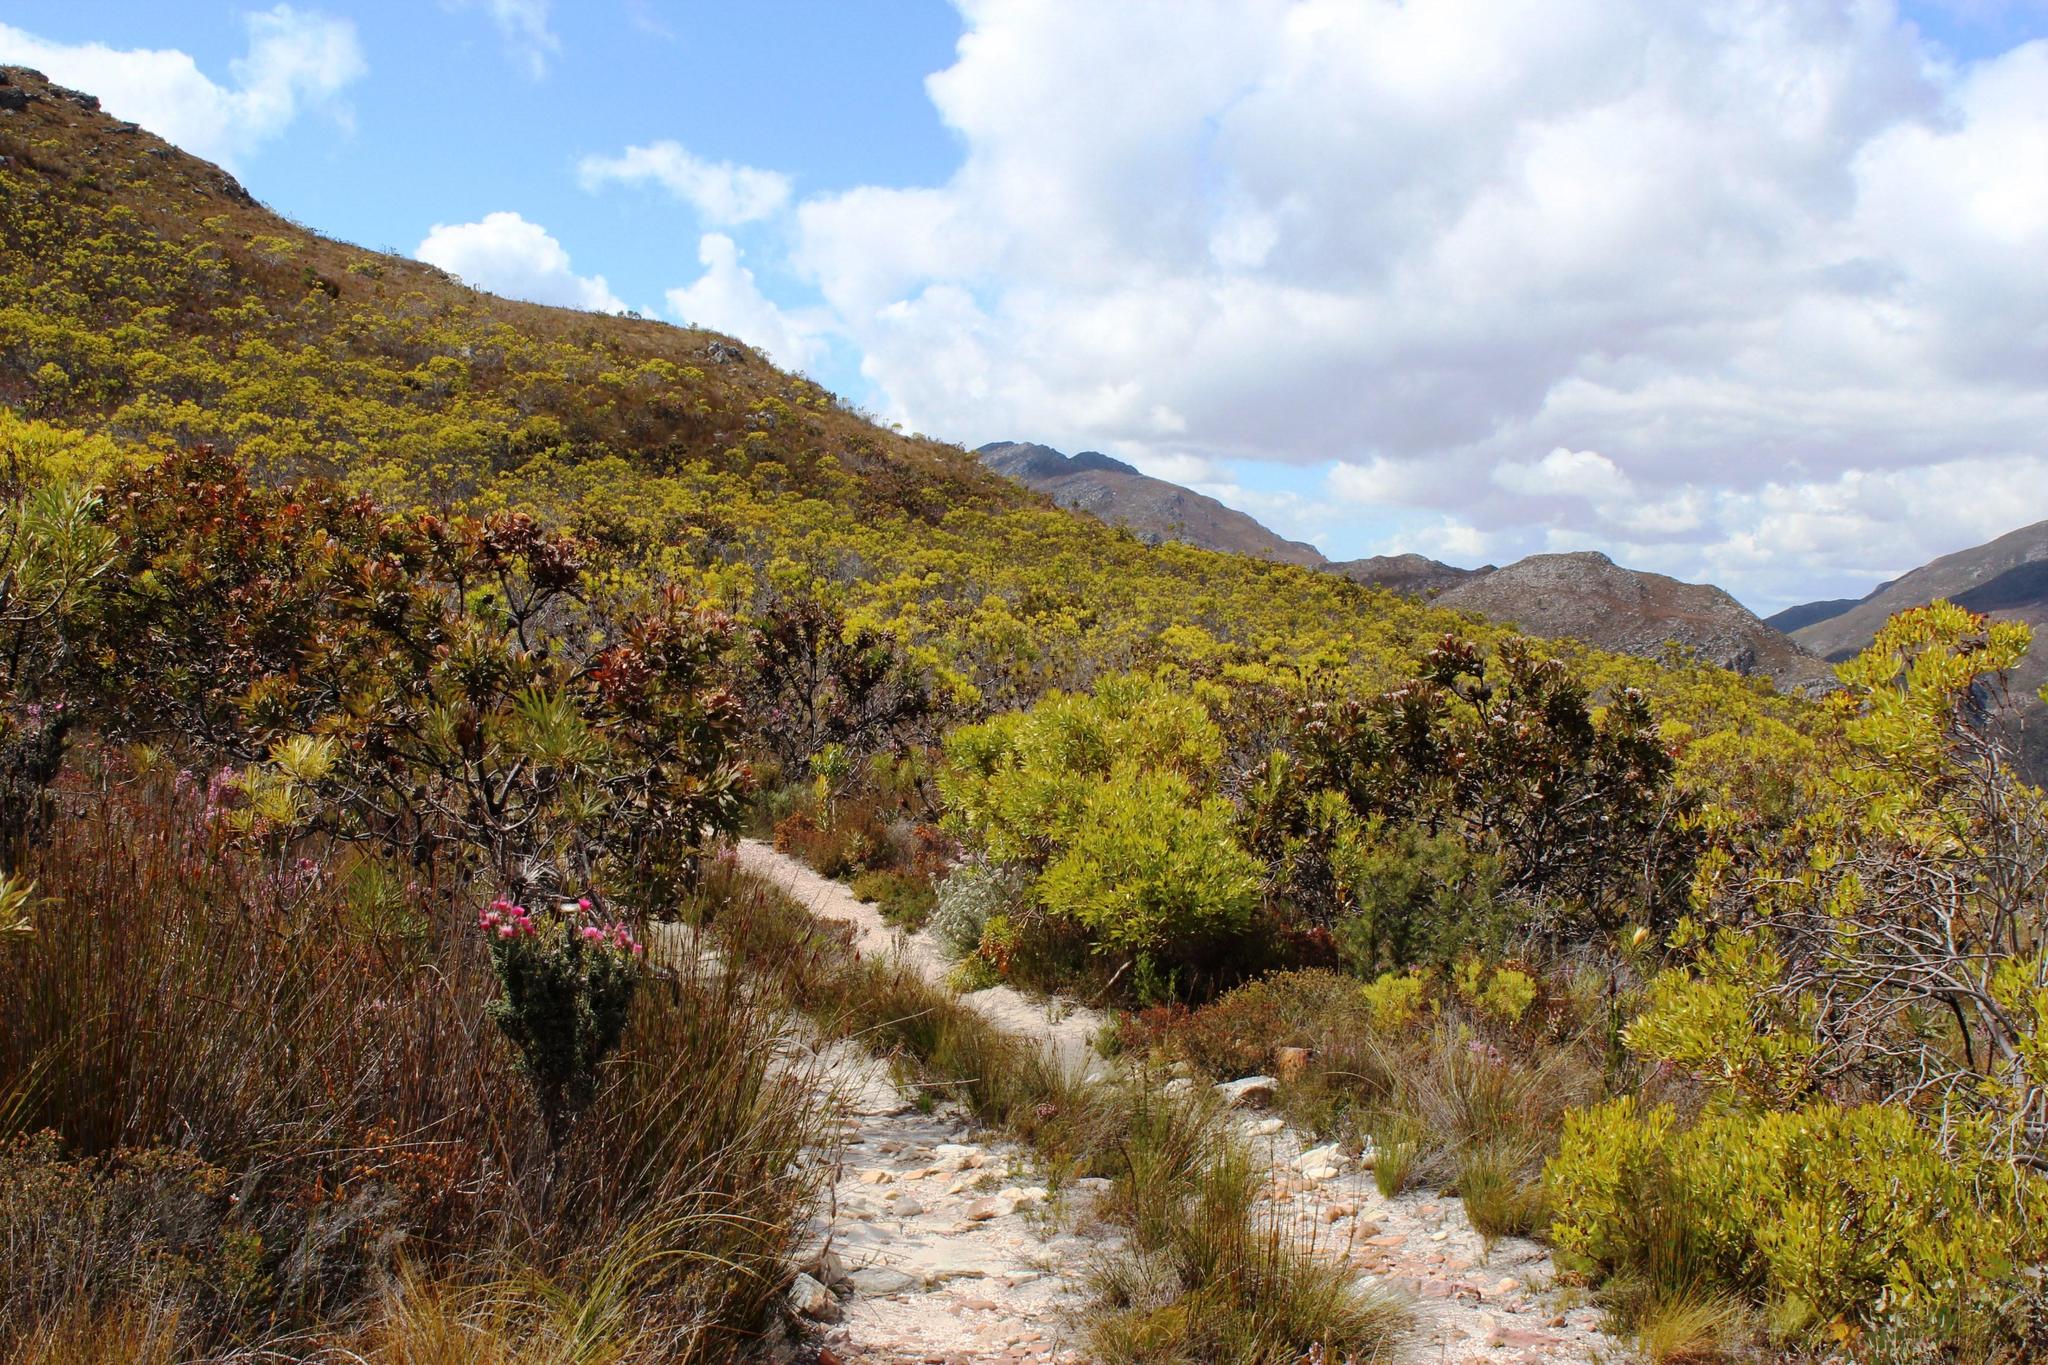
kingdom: Plantae
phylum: Tracheophyta
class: Magnoliopsida
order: Proteales
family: Proteaceae
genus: Protea
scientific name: Protea neriifolia
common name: Blue sugarbush
